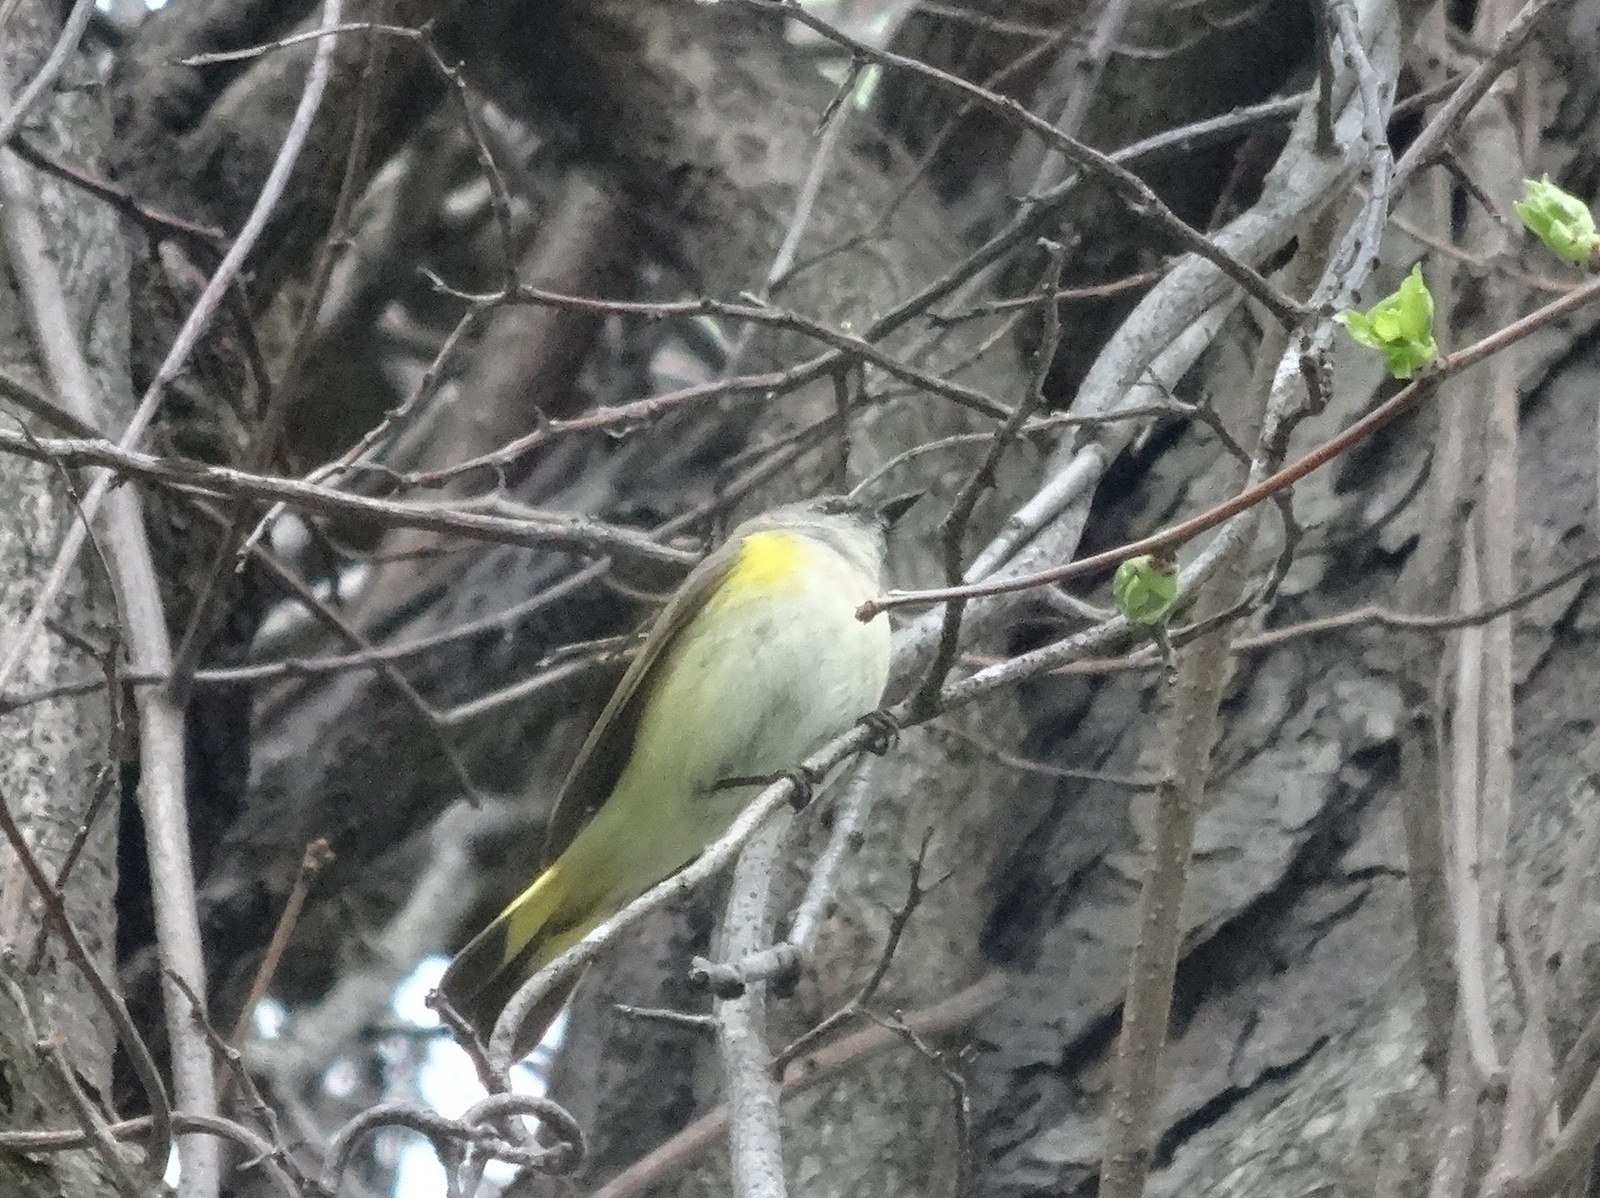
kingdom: Animalia
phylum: Chordata
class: Aves
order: Passeriformes
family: Parulidae
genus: Setophaga
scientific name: Setophaga ruticilla
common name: American redstart
